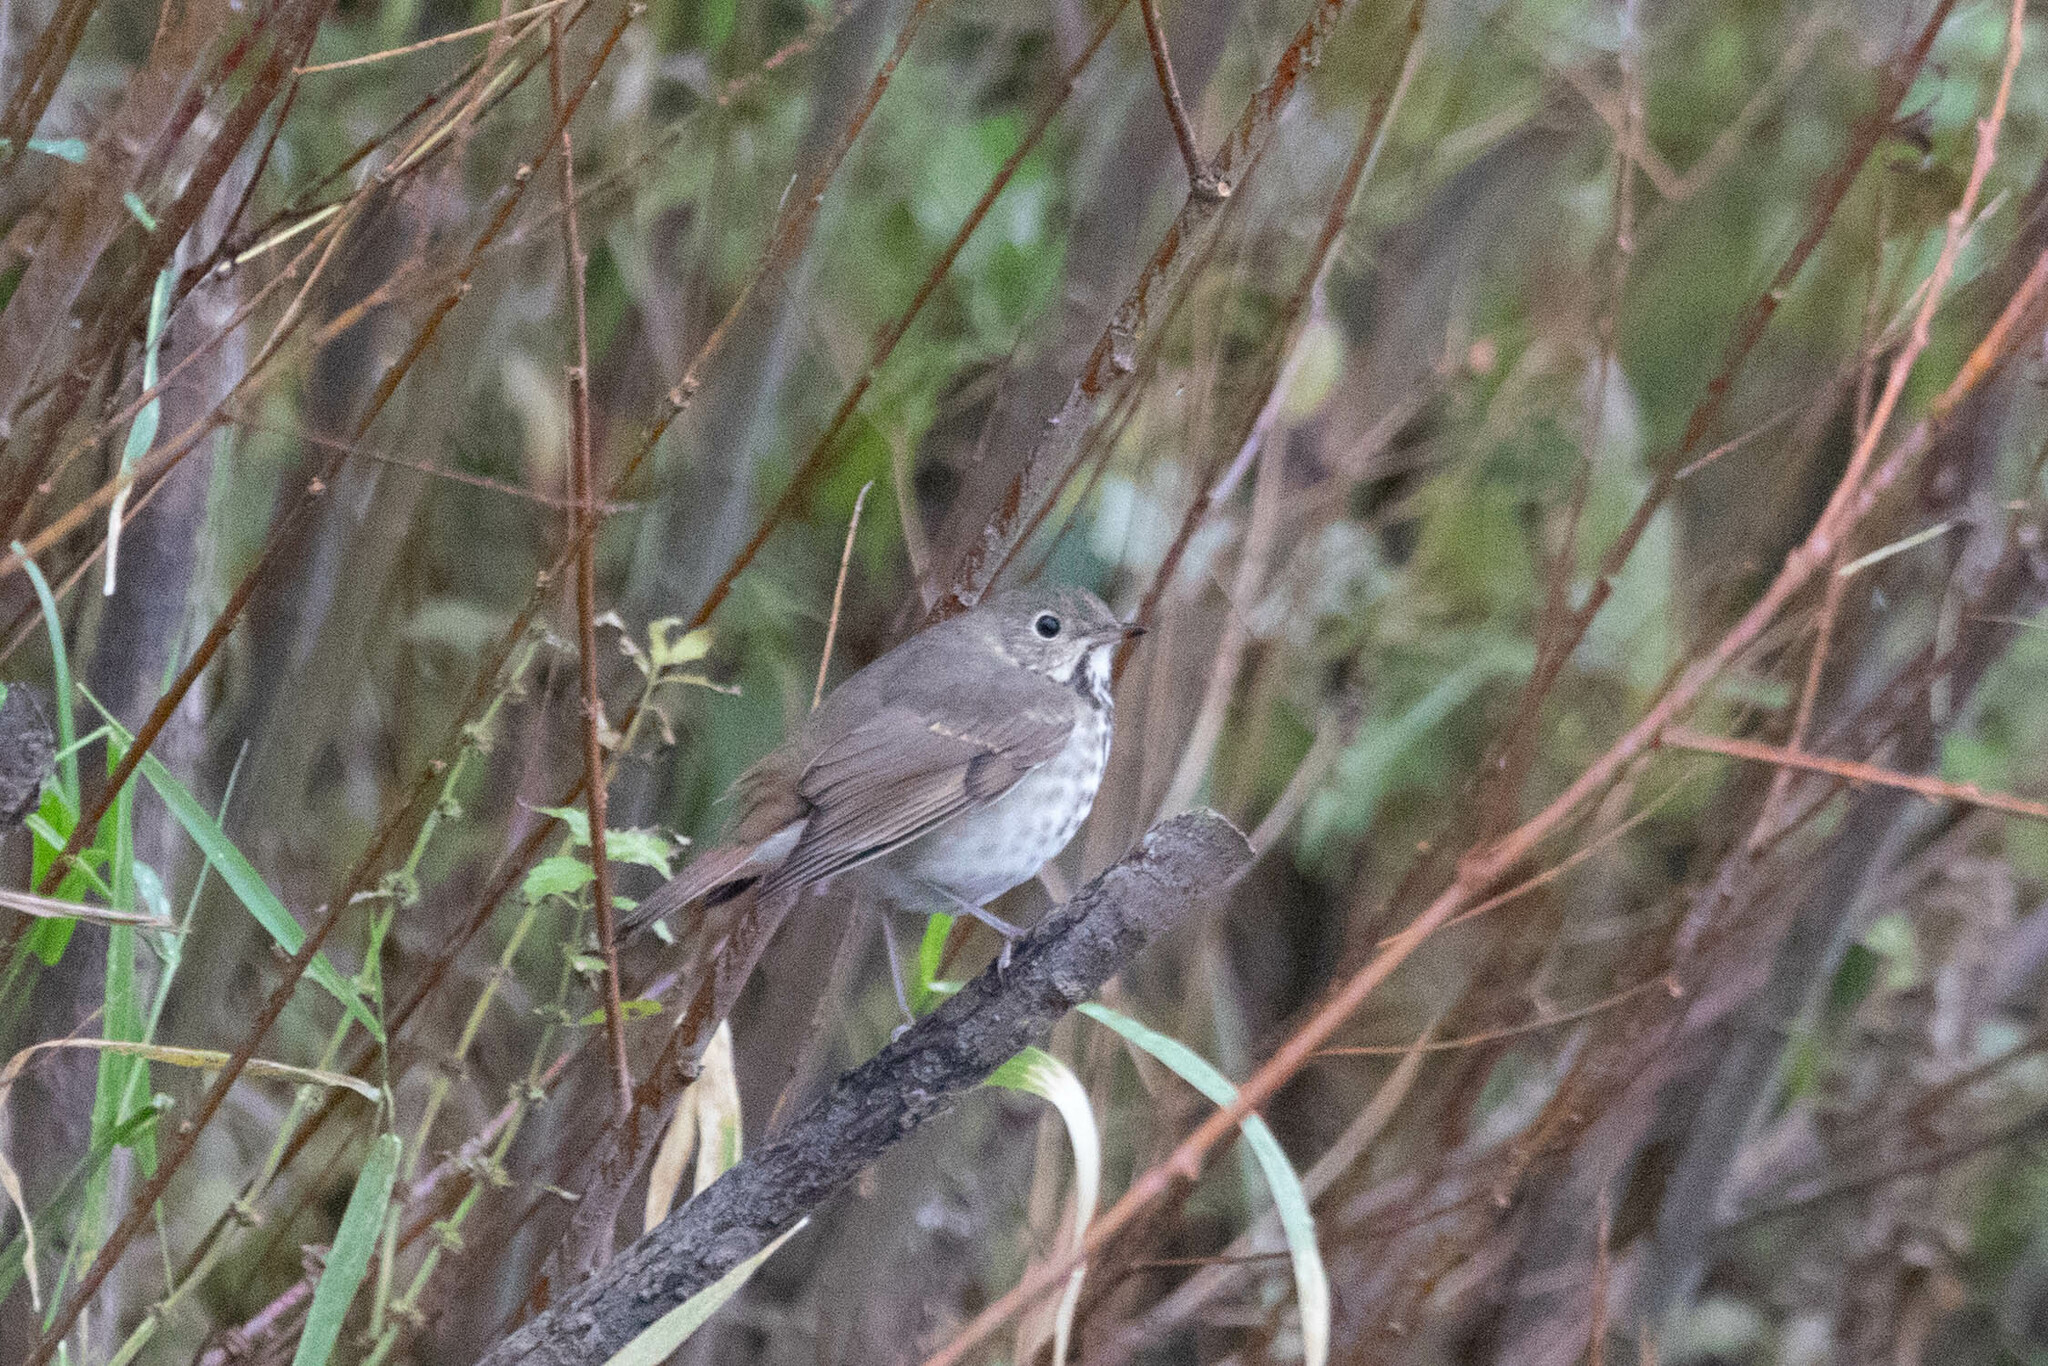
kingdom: Animalia
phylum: Chordata
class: Aves
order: Passeriformes
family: Turdidae
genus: Catharus
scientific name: Catharus guttatus
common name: Hermit thrush
